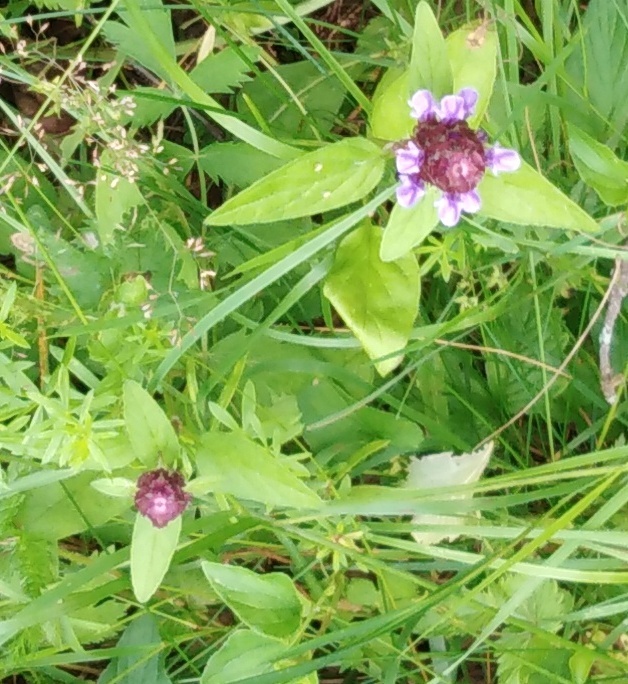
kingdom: Plantae
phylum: Tracheophyta
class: Magnoliopsida
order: Lamiales
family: Lamiaceae
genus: Prunella
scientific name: Prunella vulgaris
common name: Heal-all
